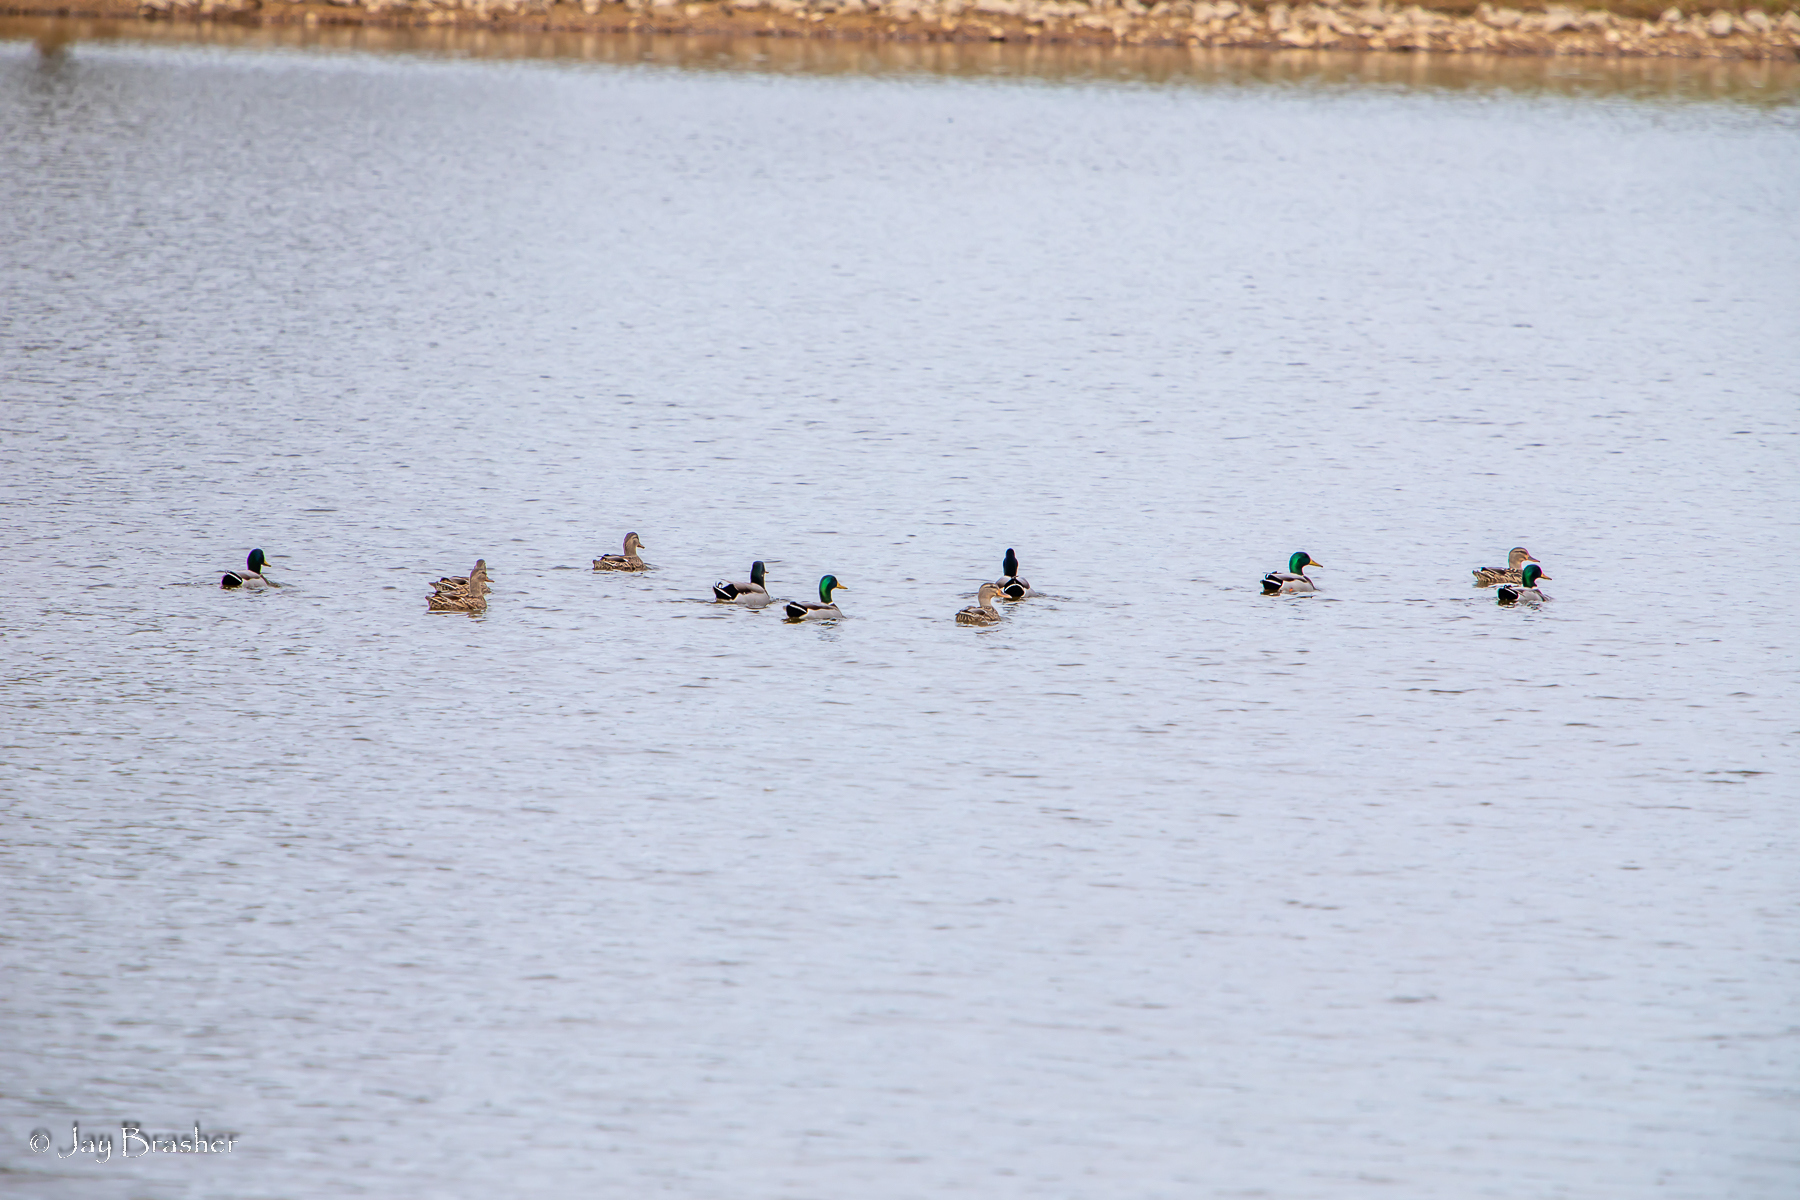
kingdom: Animalia
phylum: Chordata
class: Aves
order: Anseriformes
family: Anatidae
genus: Anas
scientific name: Anas platyrhynchos
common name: Mallard
